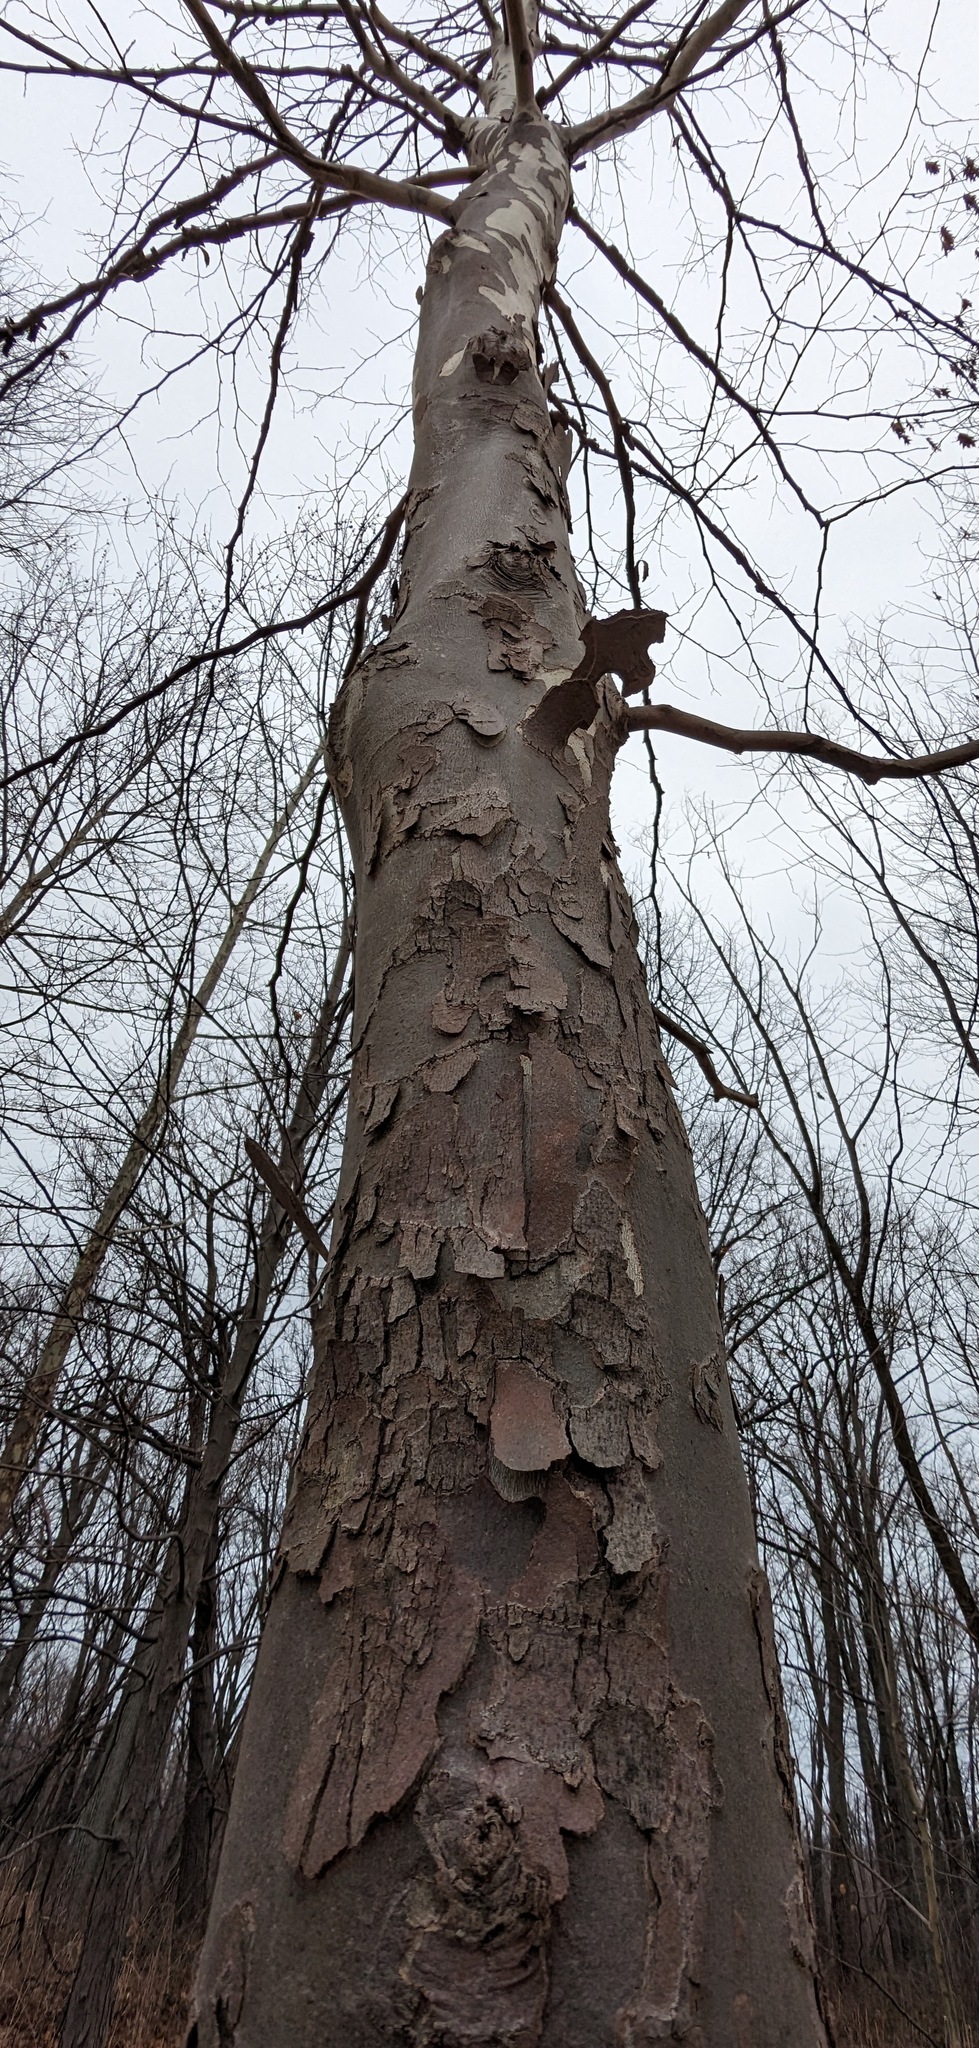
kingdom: Plantae
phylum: Tracheophyta
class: Magnoliopsida
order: Proteales
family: Platanaceae
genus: Platanus
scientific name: Platanus occidentalis
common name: American sycamore
